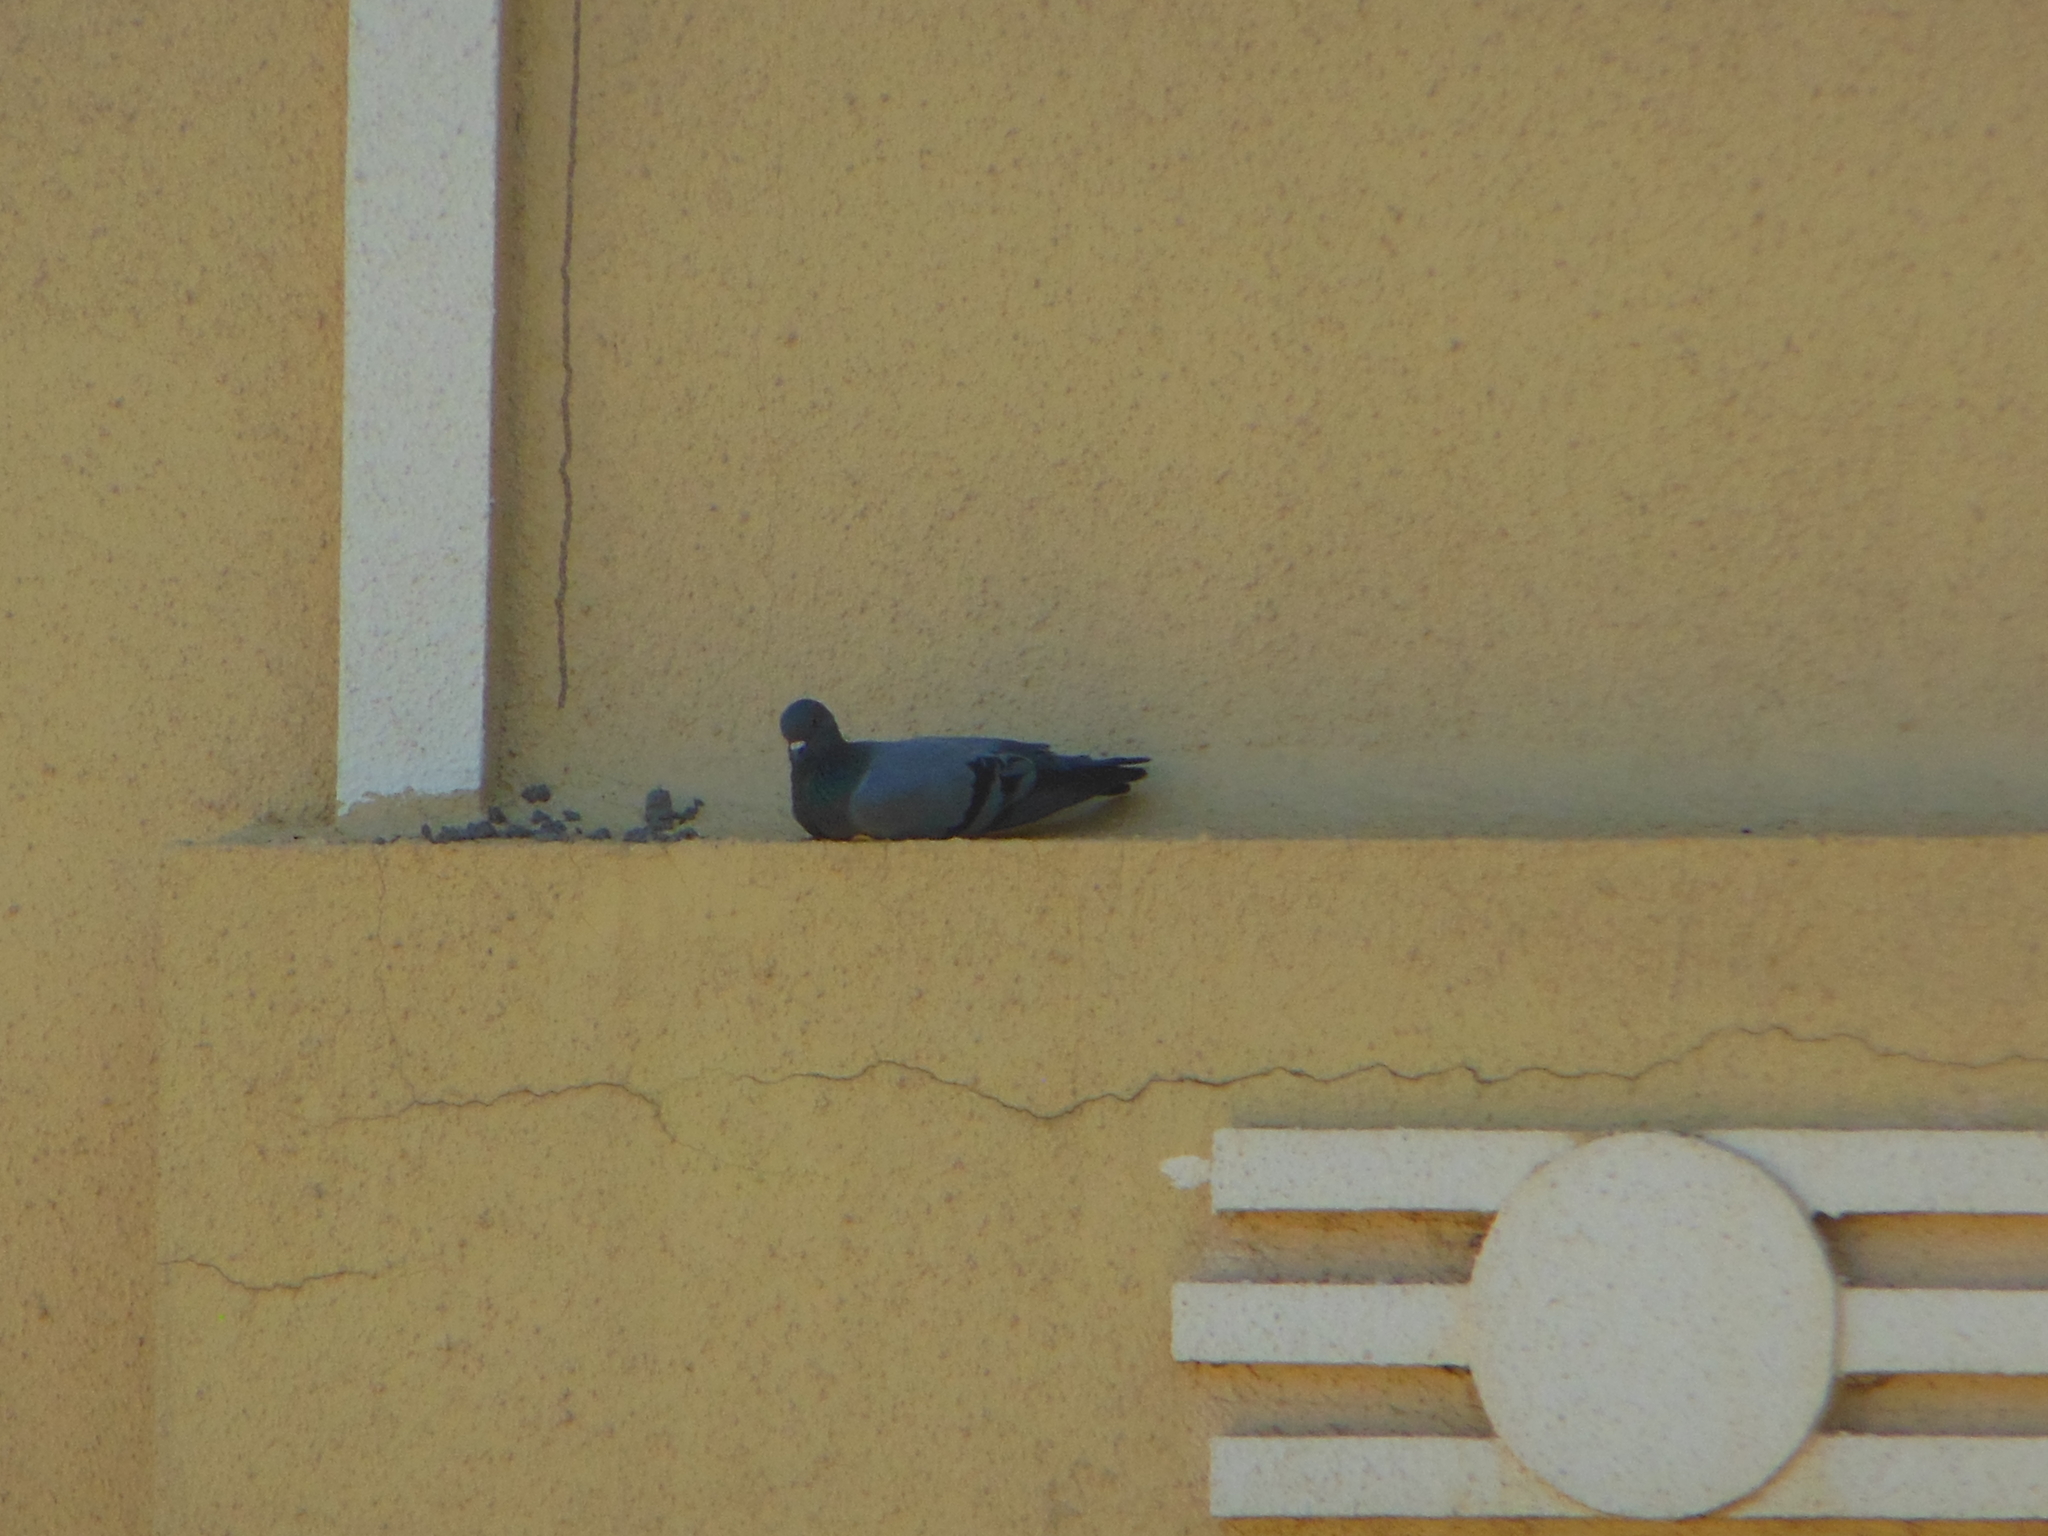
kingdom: Animalia
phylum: Chordata
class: Aves
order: Columbiformes
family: Columbidae
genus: Columba
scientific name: Columba livia
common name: Rock pigeon
